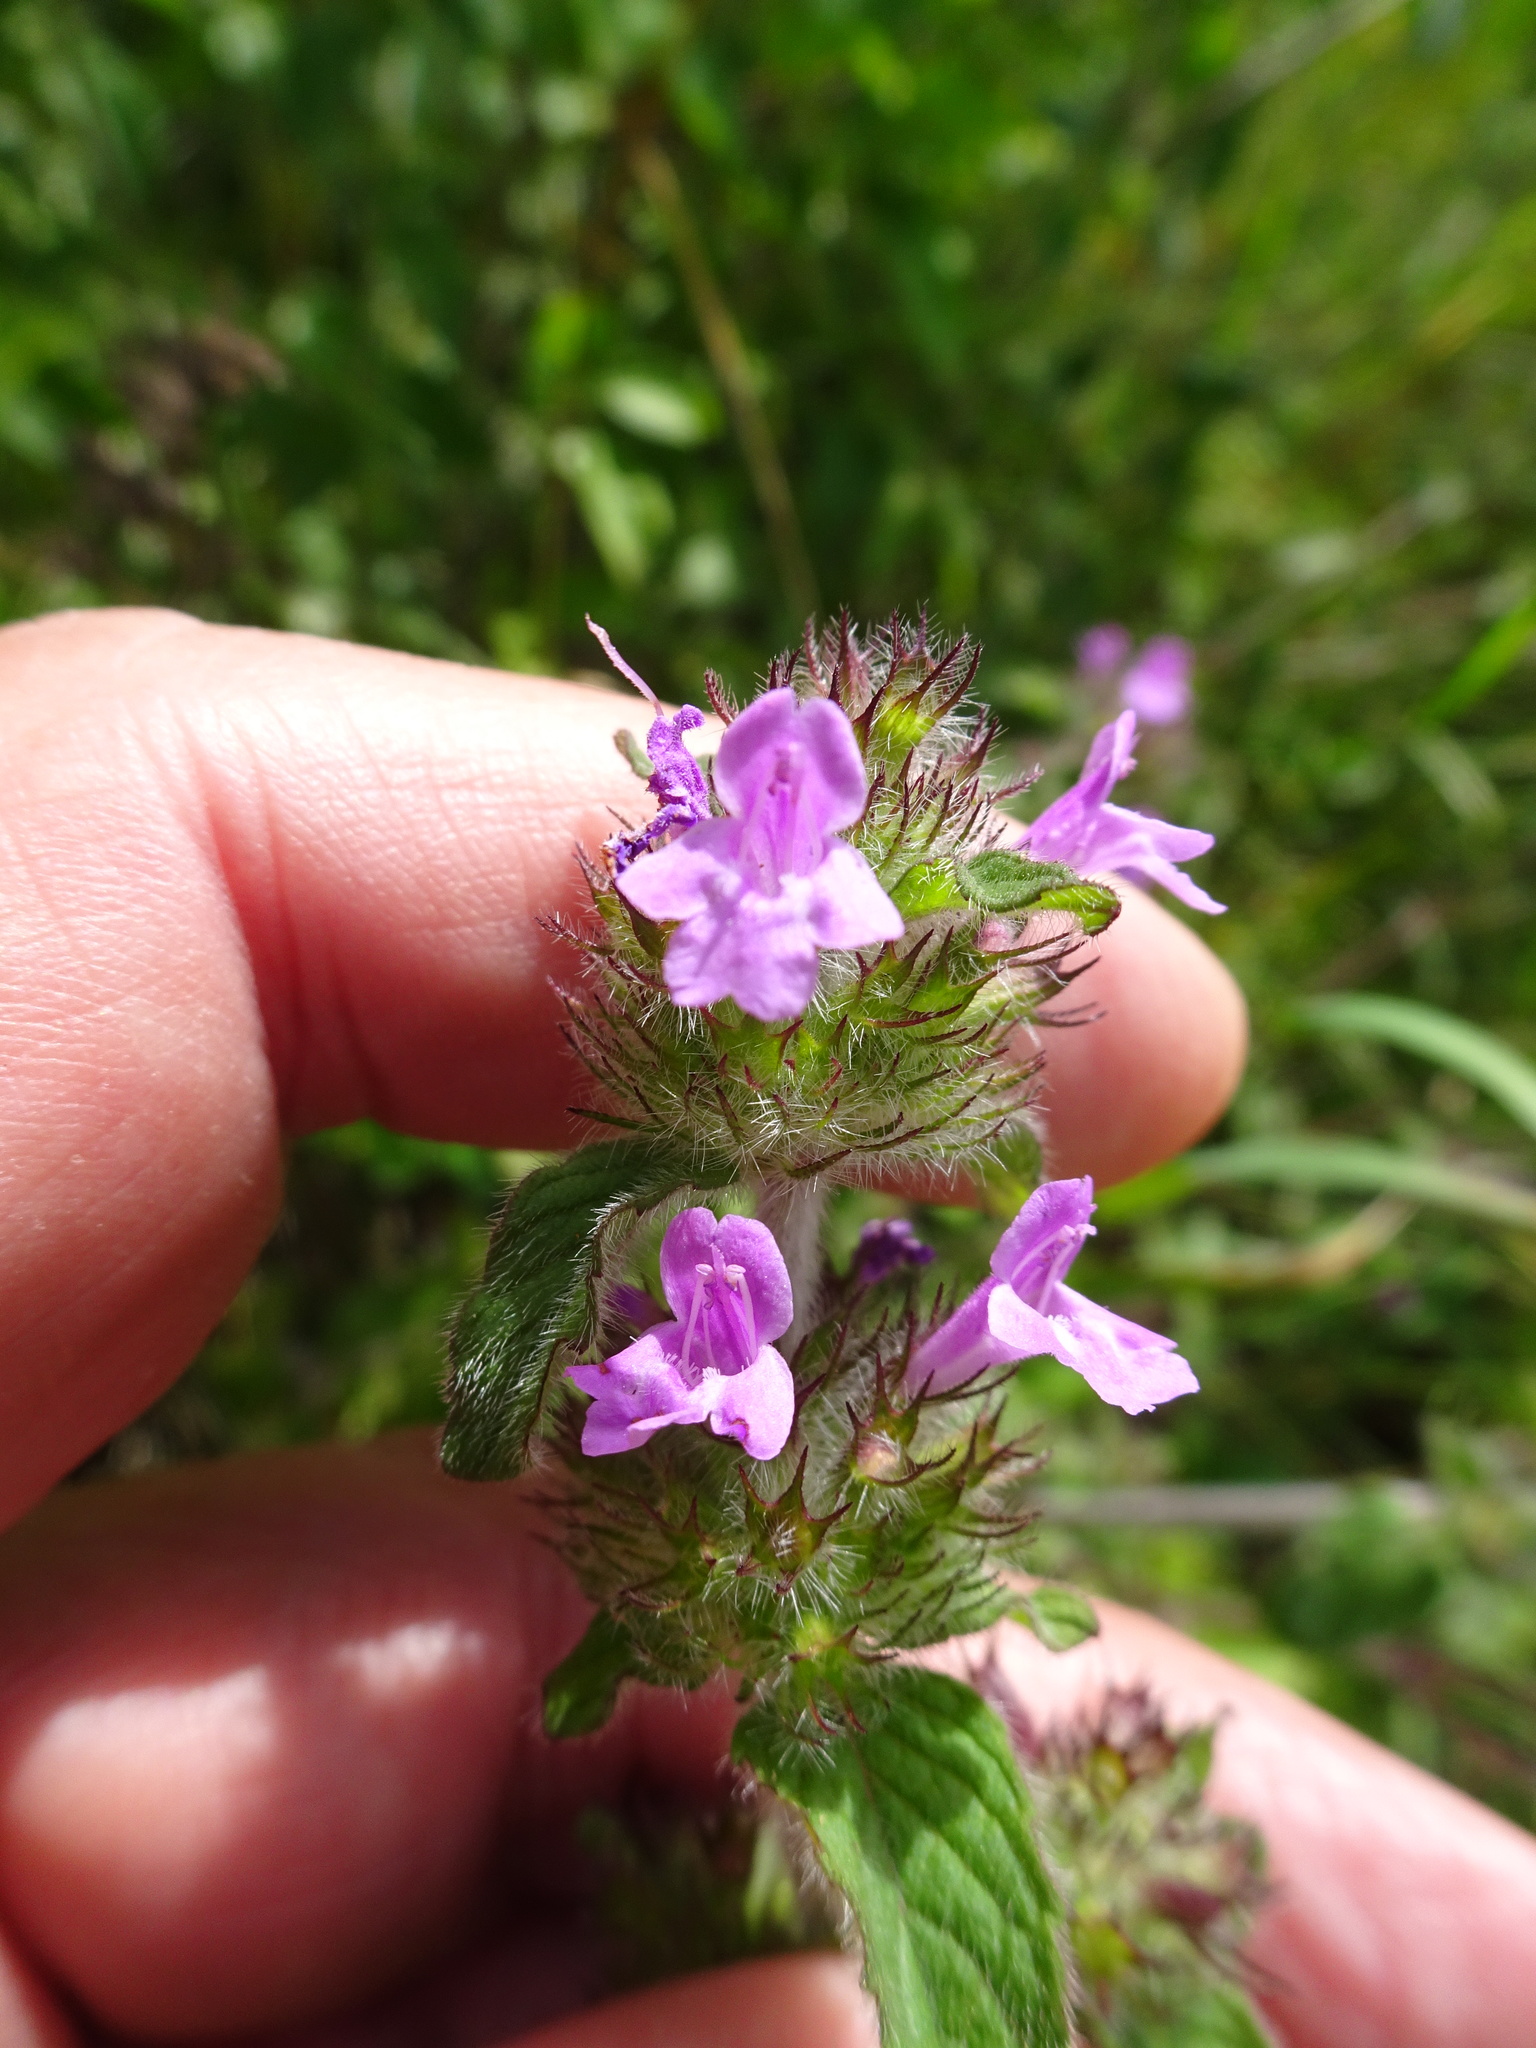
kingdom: Plantae
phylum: Tracheophyta
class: Magnoliopsida
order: Lamiales
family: Lamiaceae
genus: Clinopodium
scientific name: Clinopodium vulgare
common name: Wild basil
